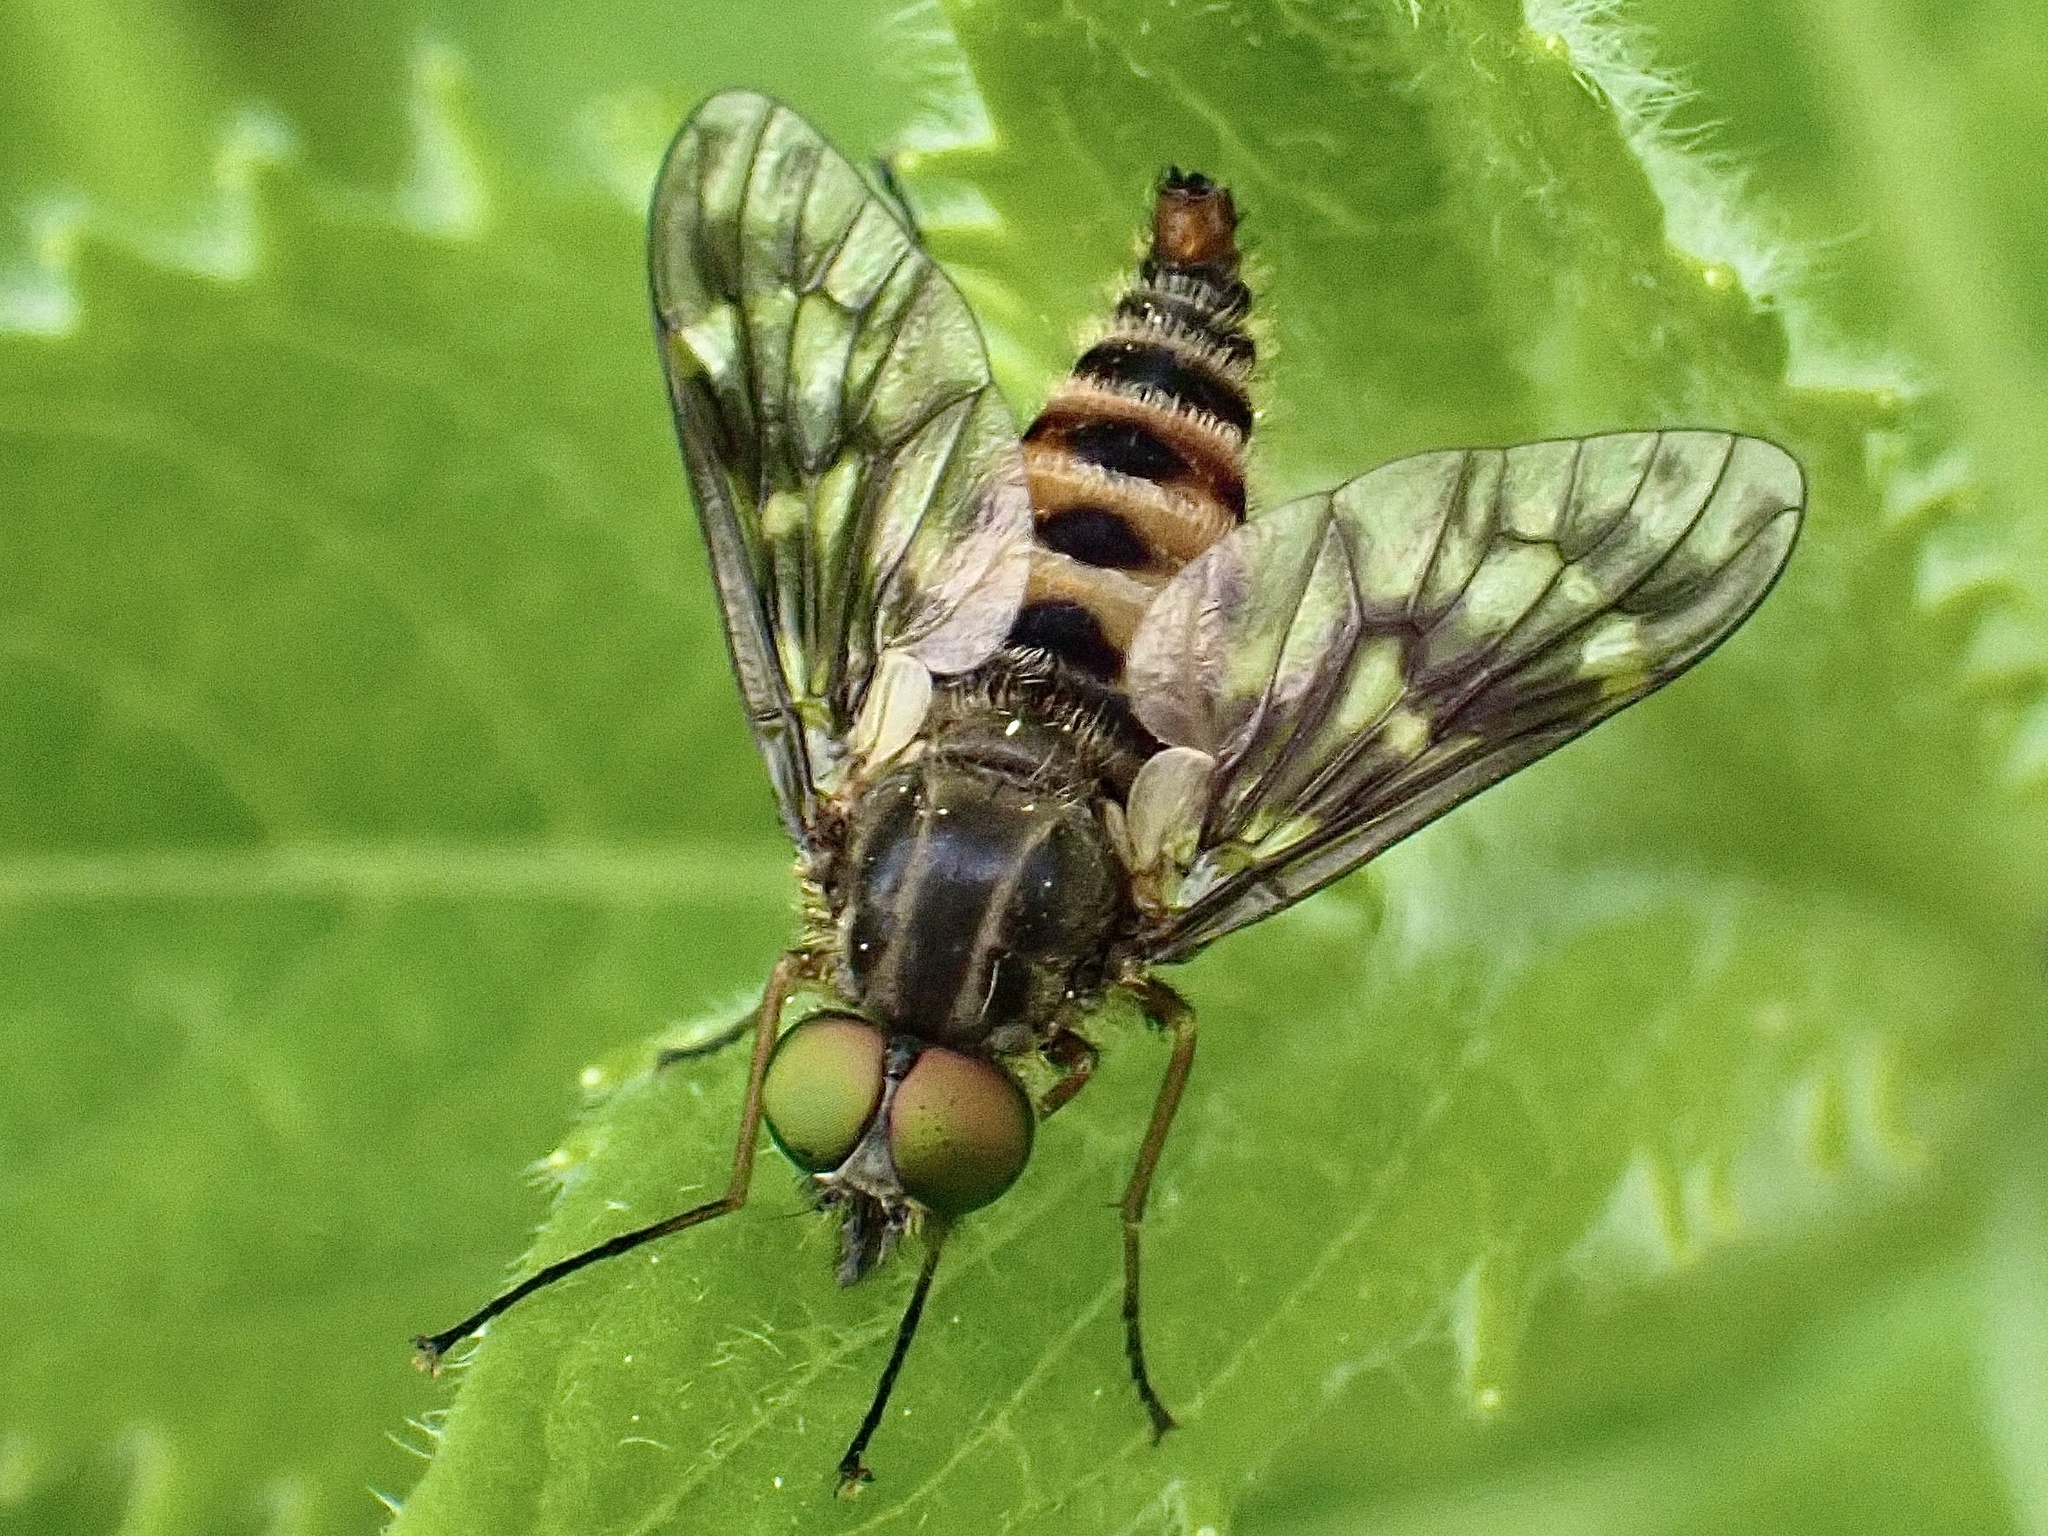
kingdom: Animalia
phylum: Arthropoda
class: Insecta
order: Diptera
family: Athericidae
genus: Atherix
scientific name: Atherix ibis
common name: Yellow-legged water-snipefly
